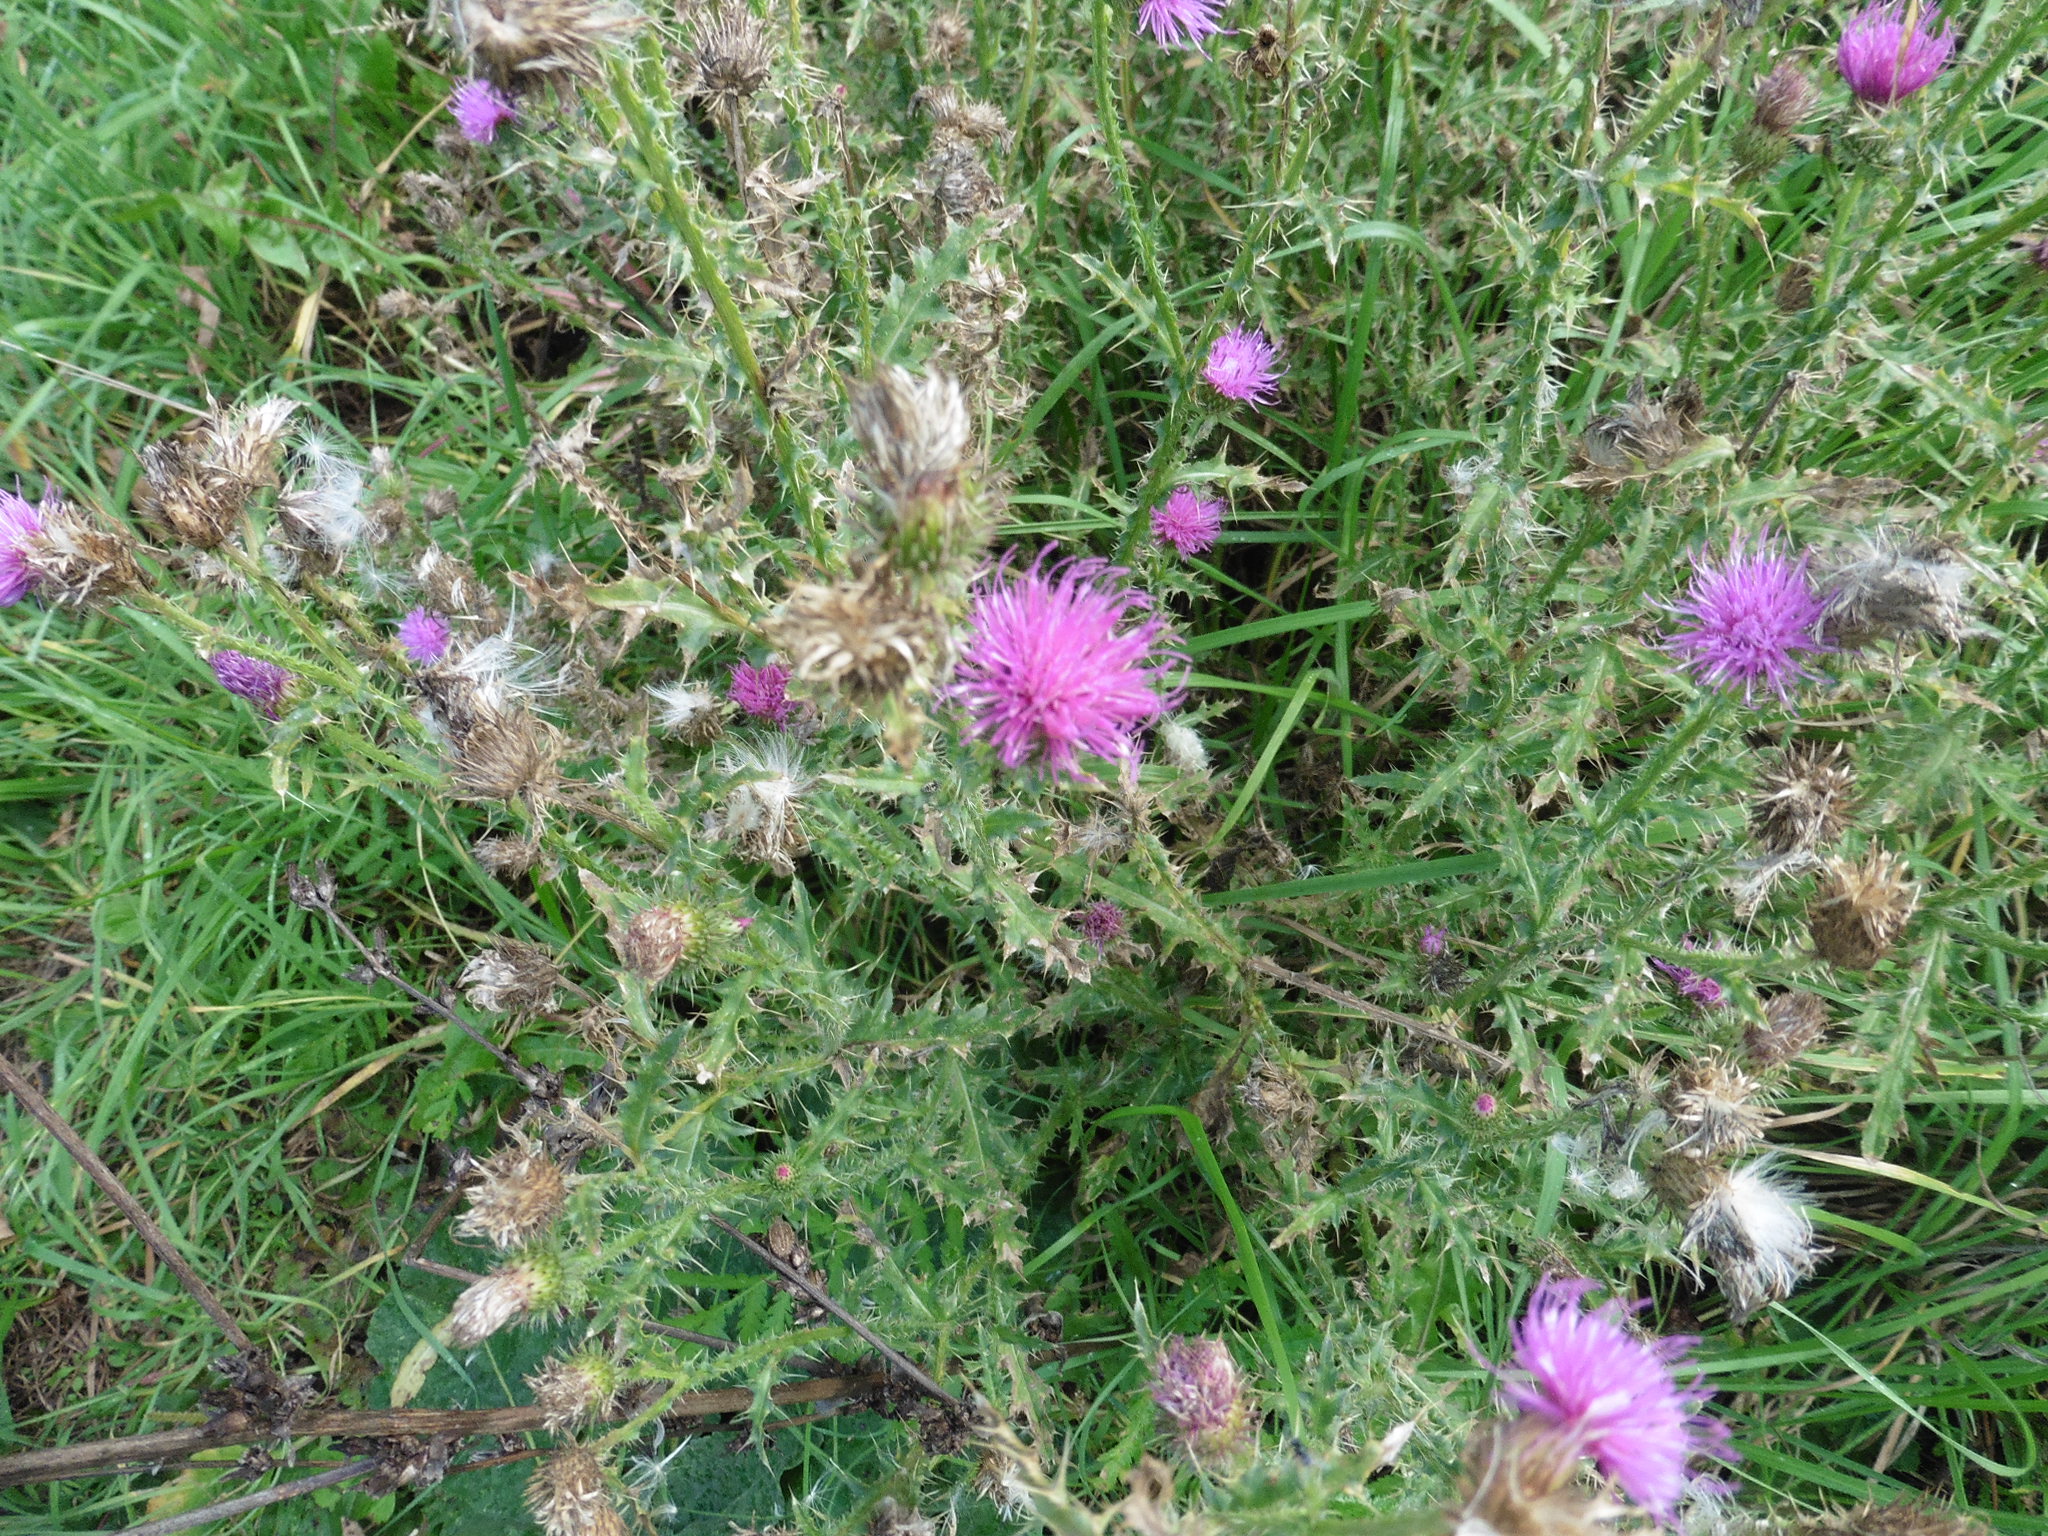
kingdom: Plantae
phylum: Tracheophyta
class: Magnoliopsida
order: Asterales
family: Asteraceae
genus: Carduus
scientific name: Carduus crispus
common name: Welted thistle
